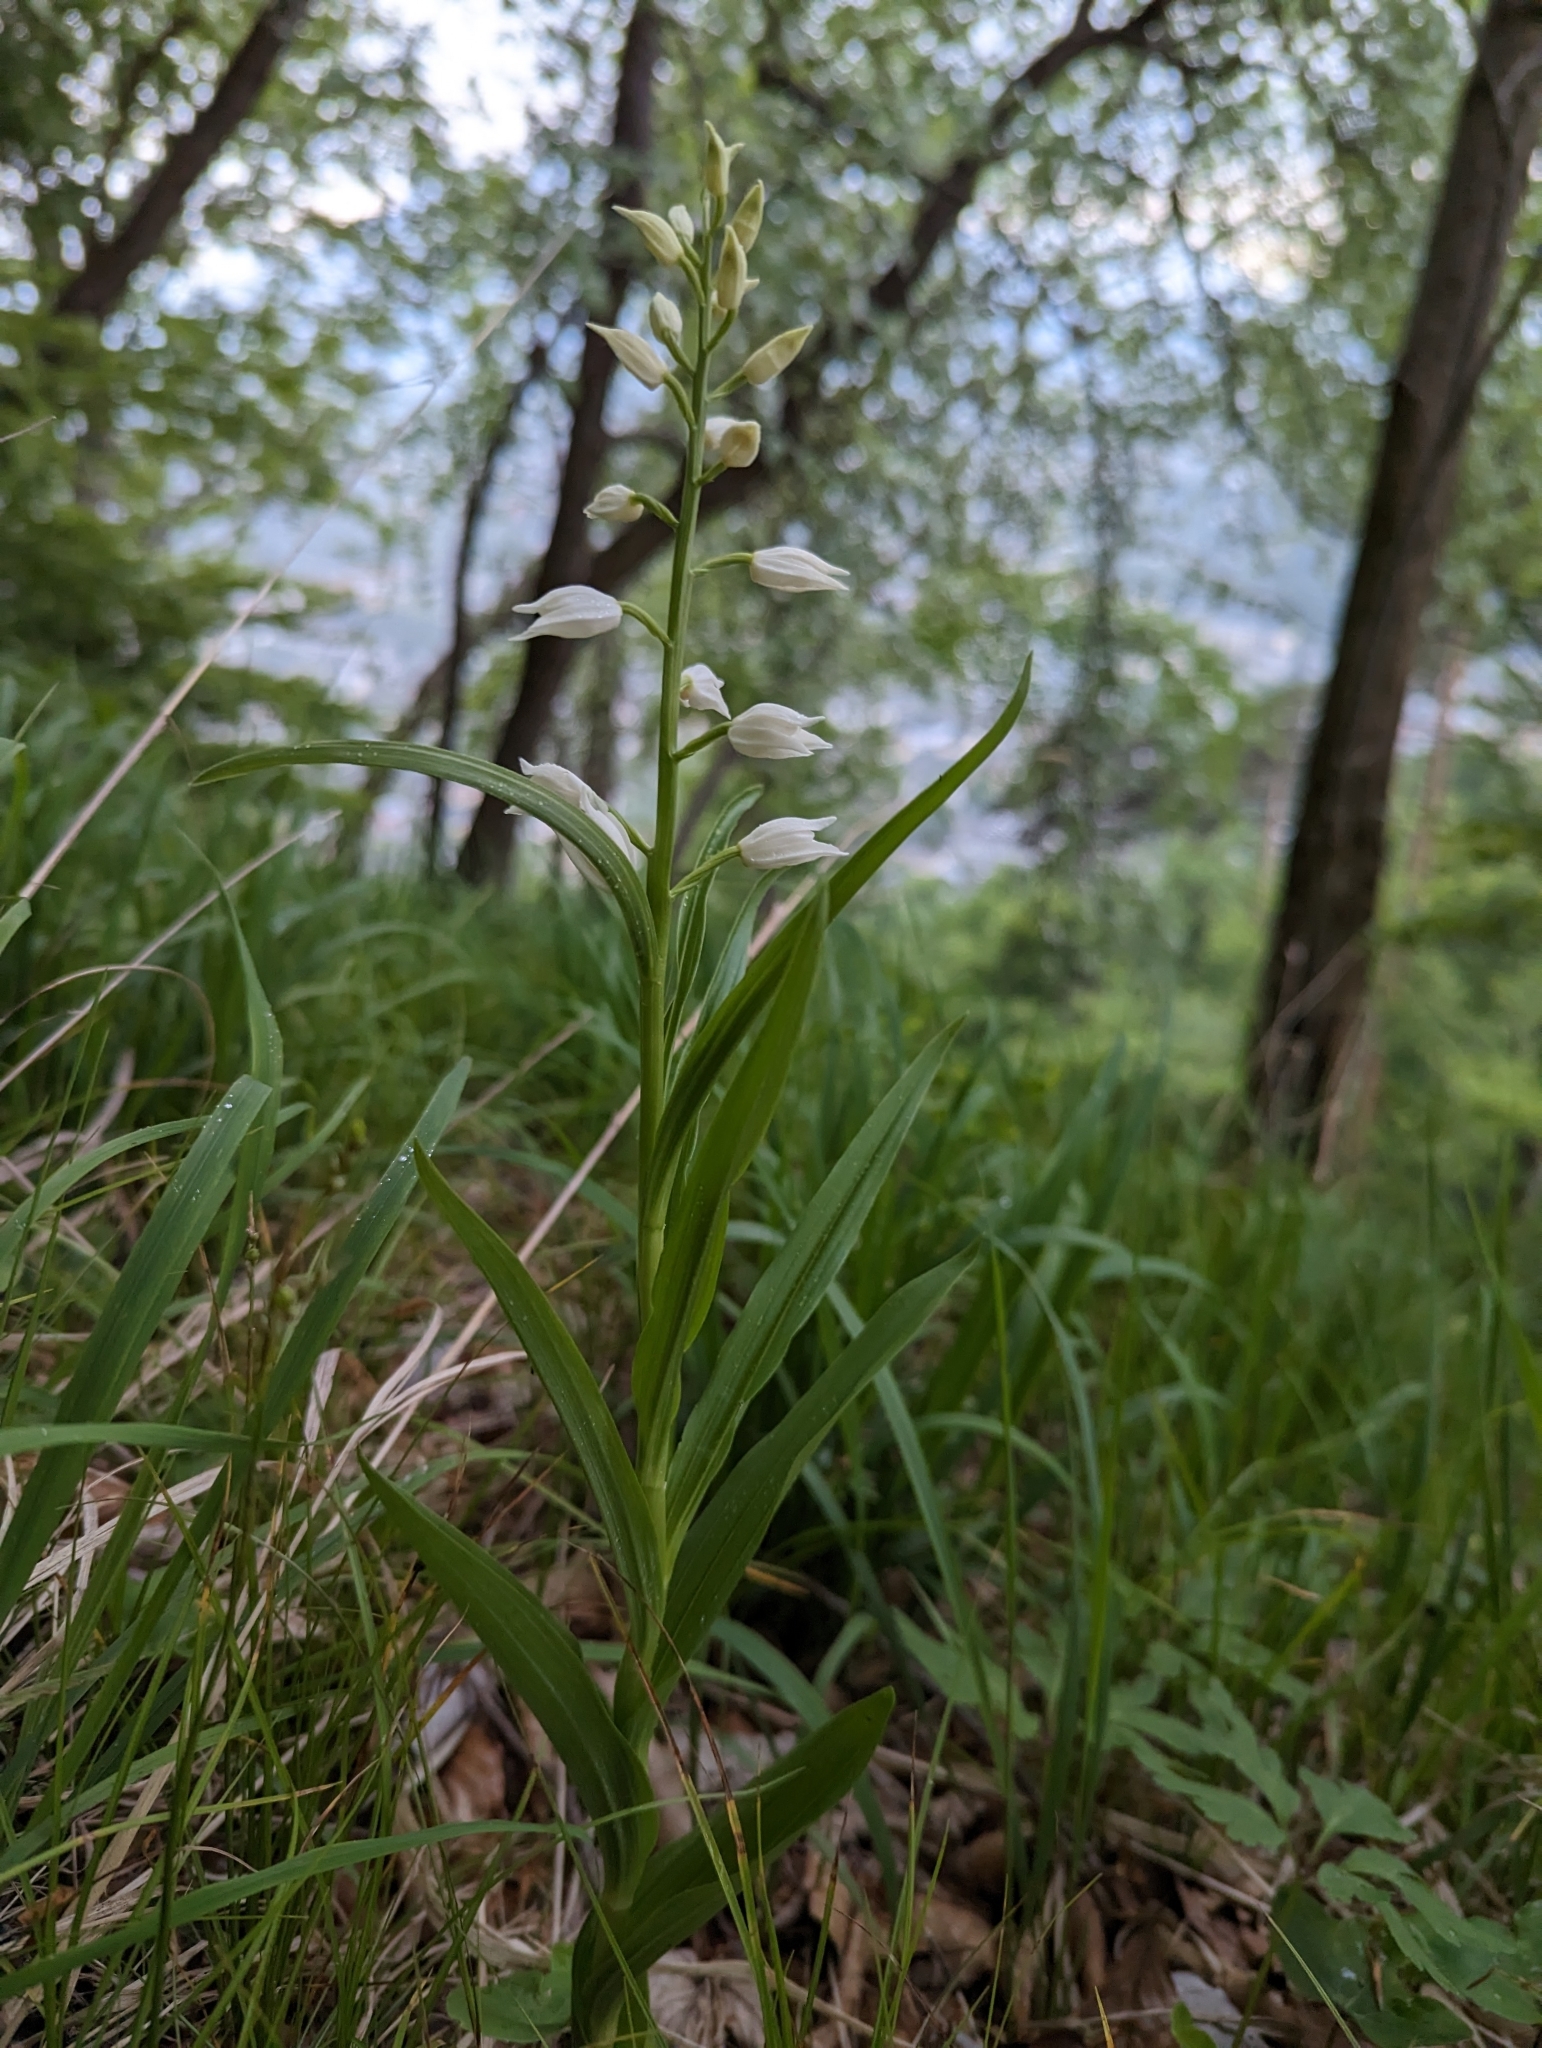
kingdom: Plantae
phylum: Tracheophyta
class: Liliopsida
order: Asparagales
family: Orchidaceae
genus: Cephalanthera
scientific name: Cephalanthera longifolia
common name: Narrow-leaved helleborine
